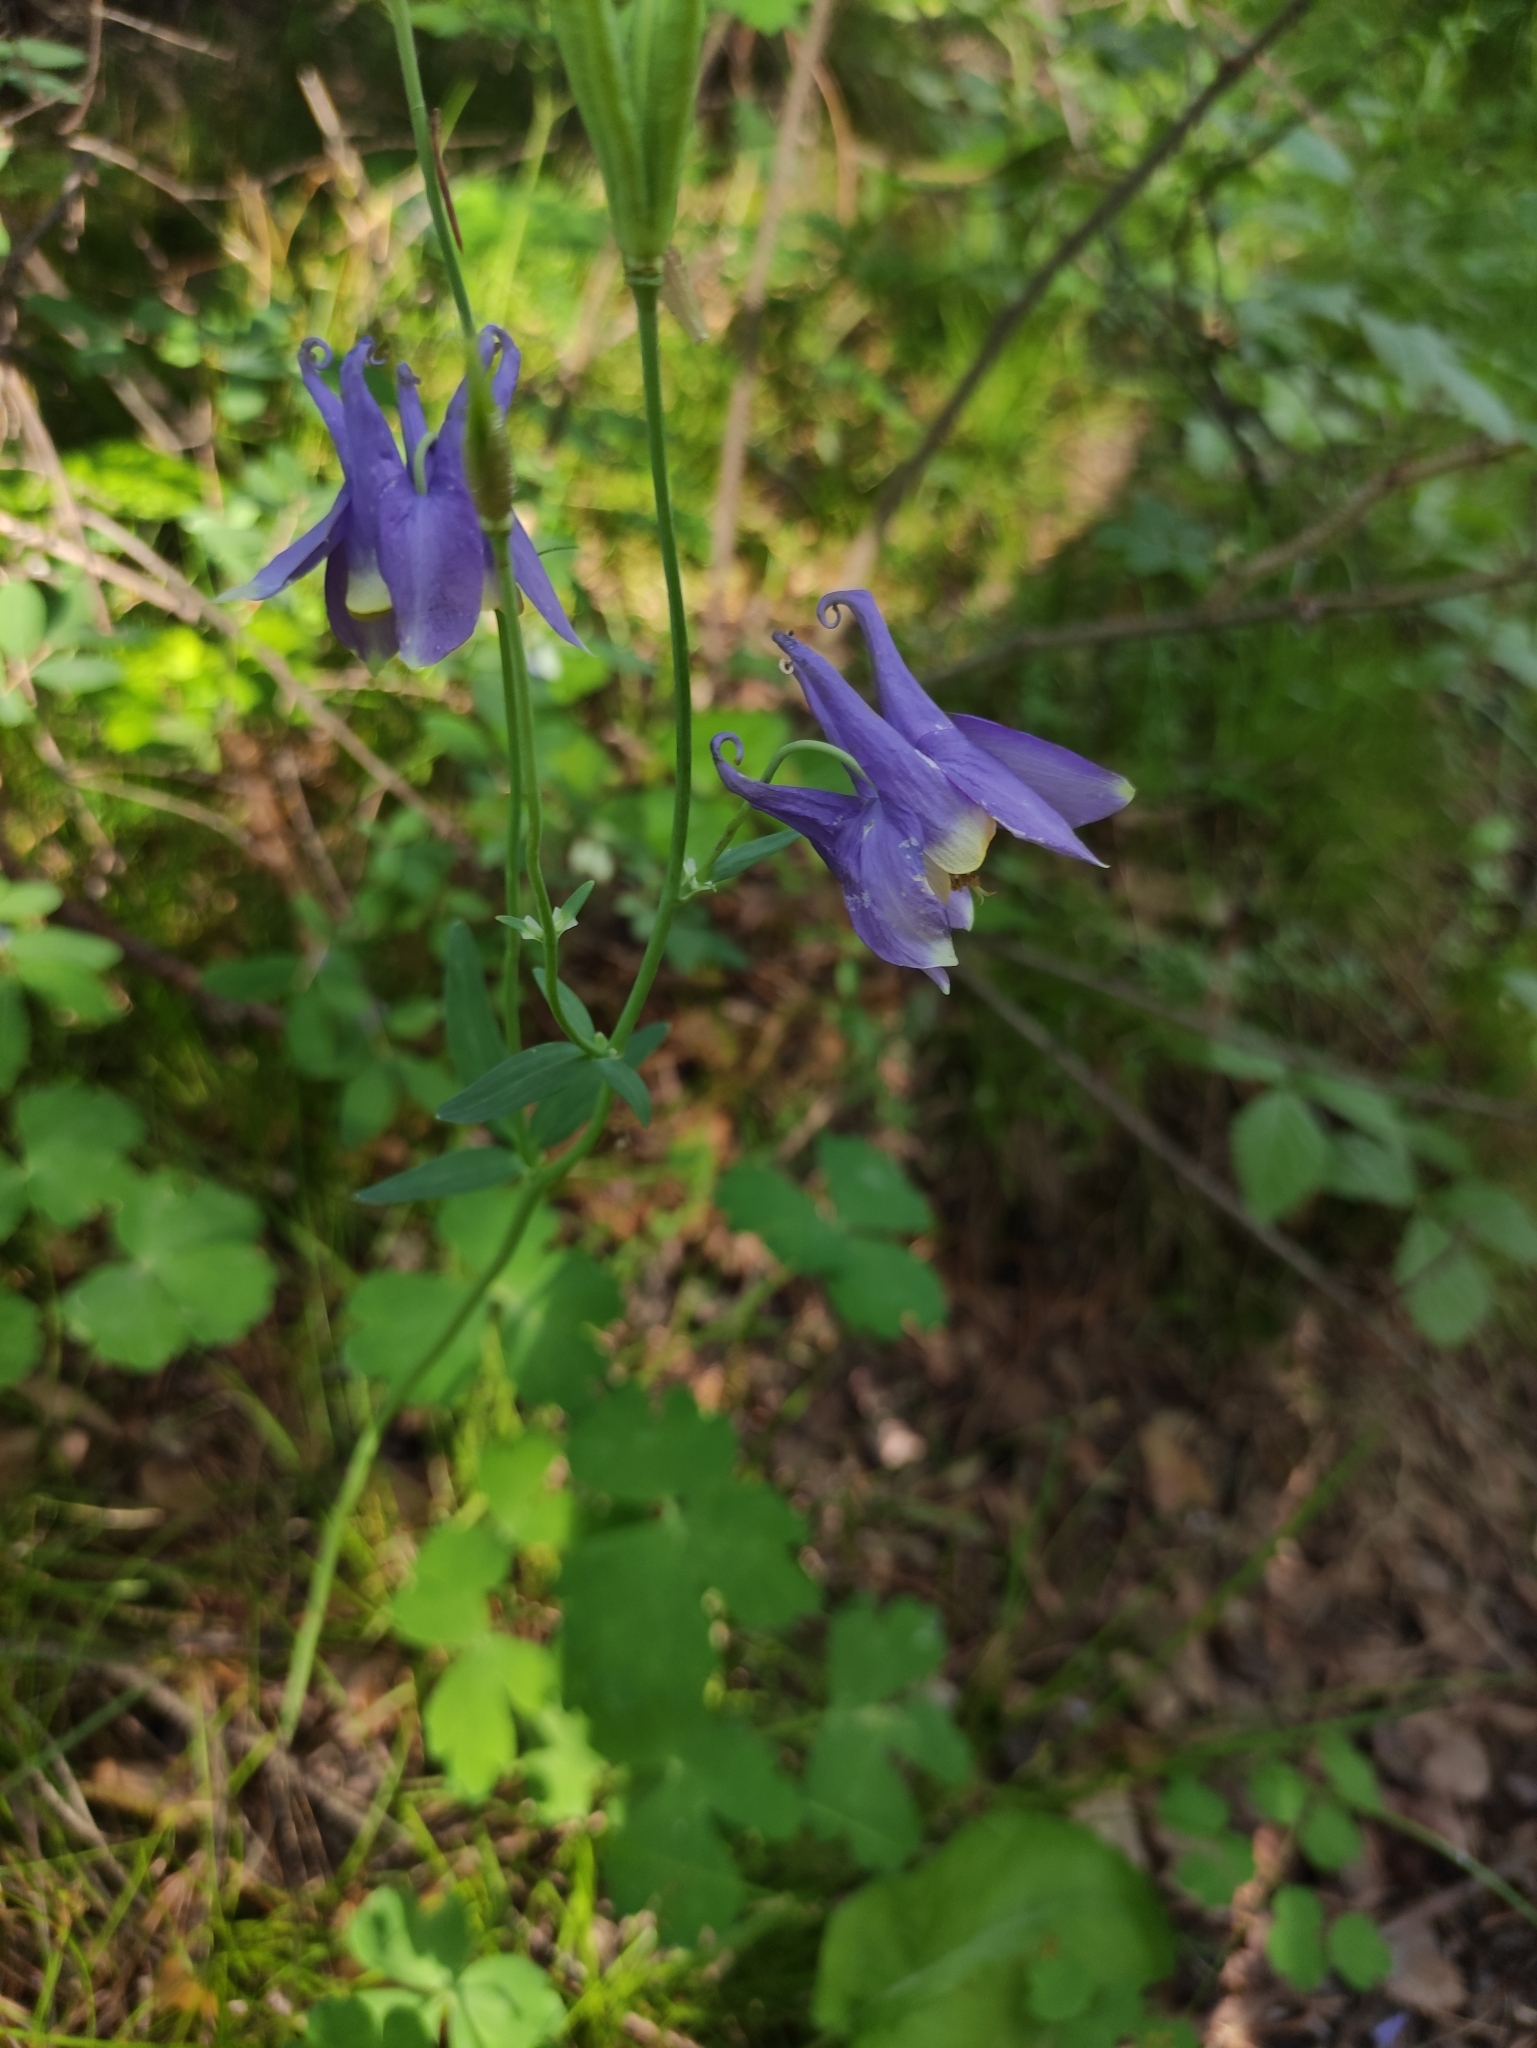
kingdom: Plantae
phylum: Tracheophyta
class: Magnoliopsida
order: Ranunculales
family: Ranunculaceae
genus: Aquilegia
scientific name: Aquilegia sibirica
